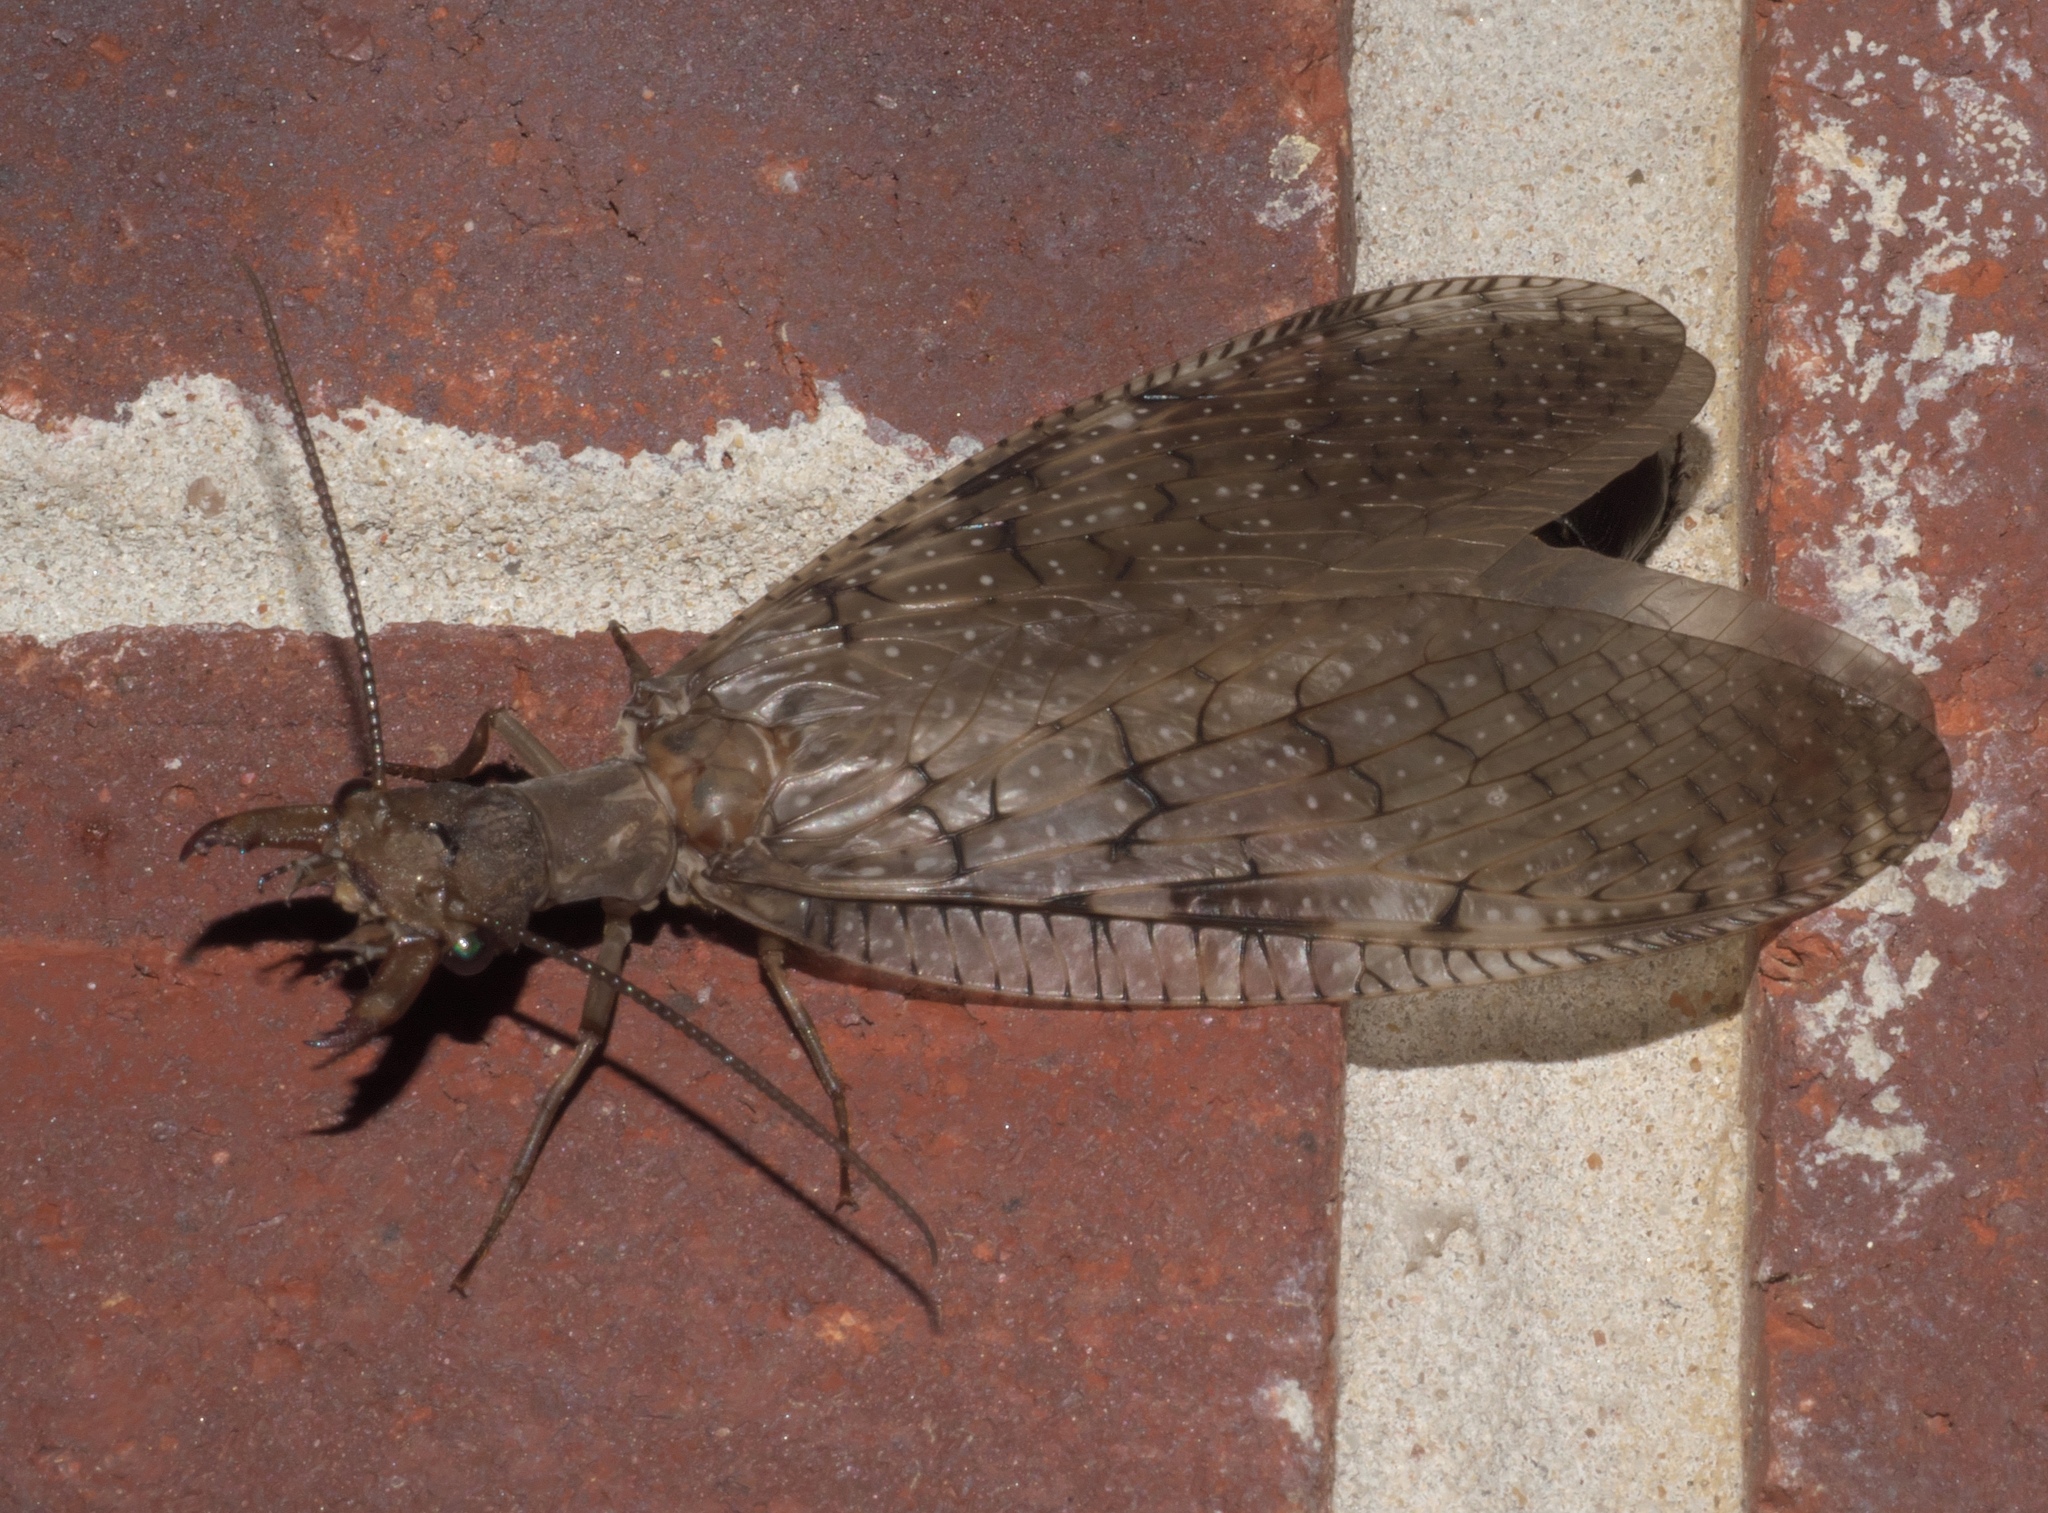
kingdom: Animalia
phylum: Arthropoda
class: Insecta
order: Megaloptera
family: Corydalidae
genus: Corydalus
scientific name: Corydalus cornutus
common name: Dobsonfly
